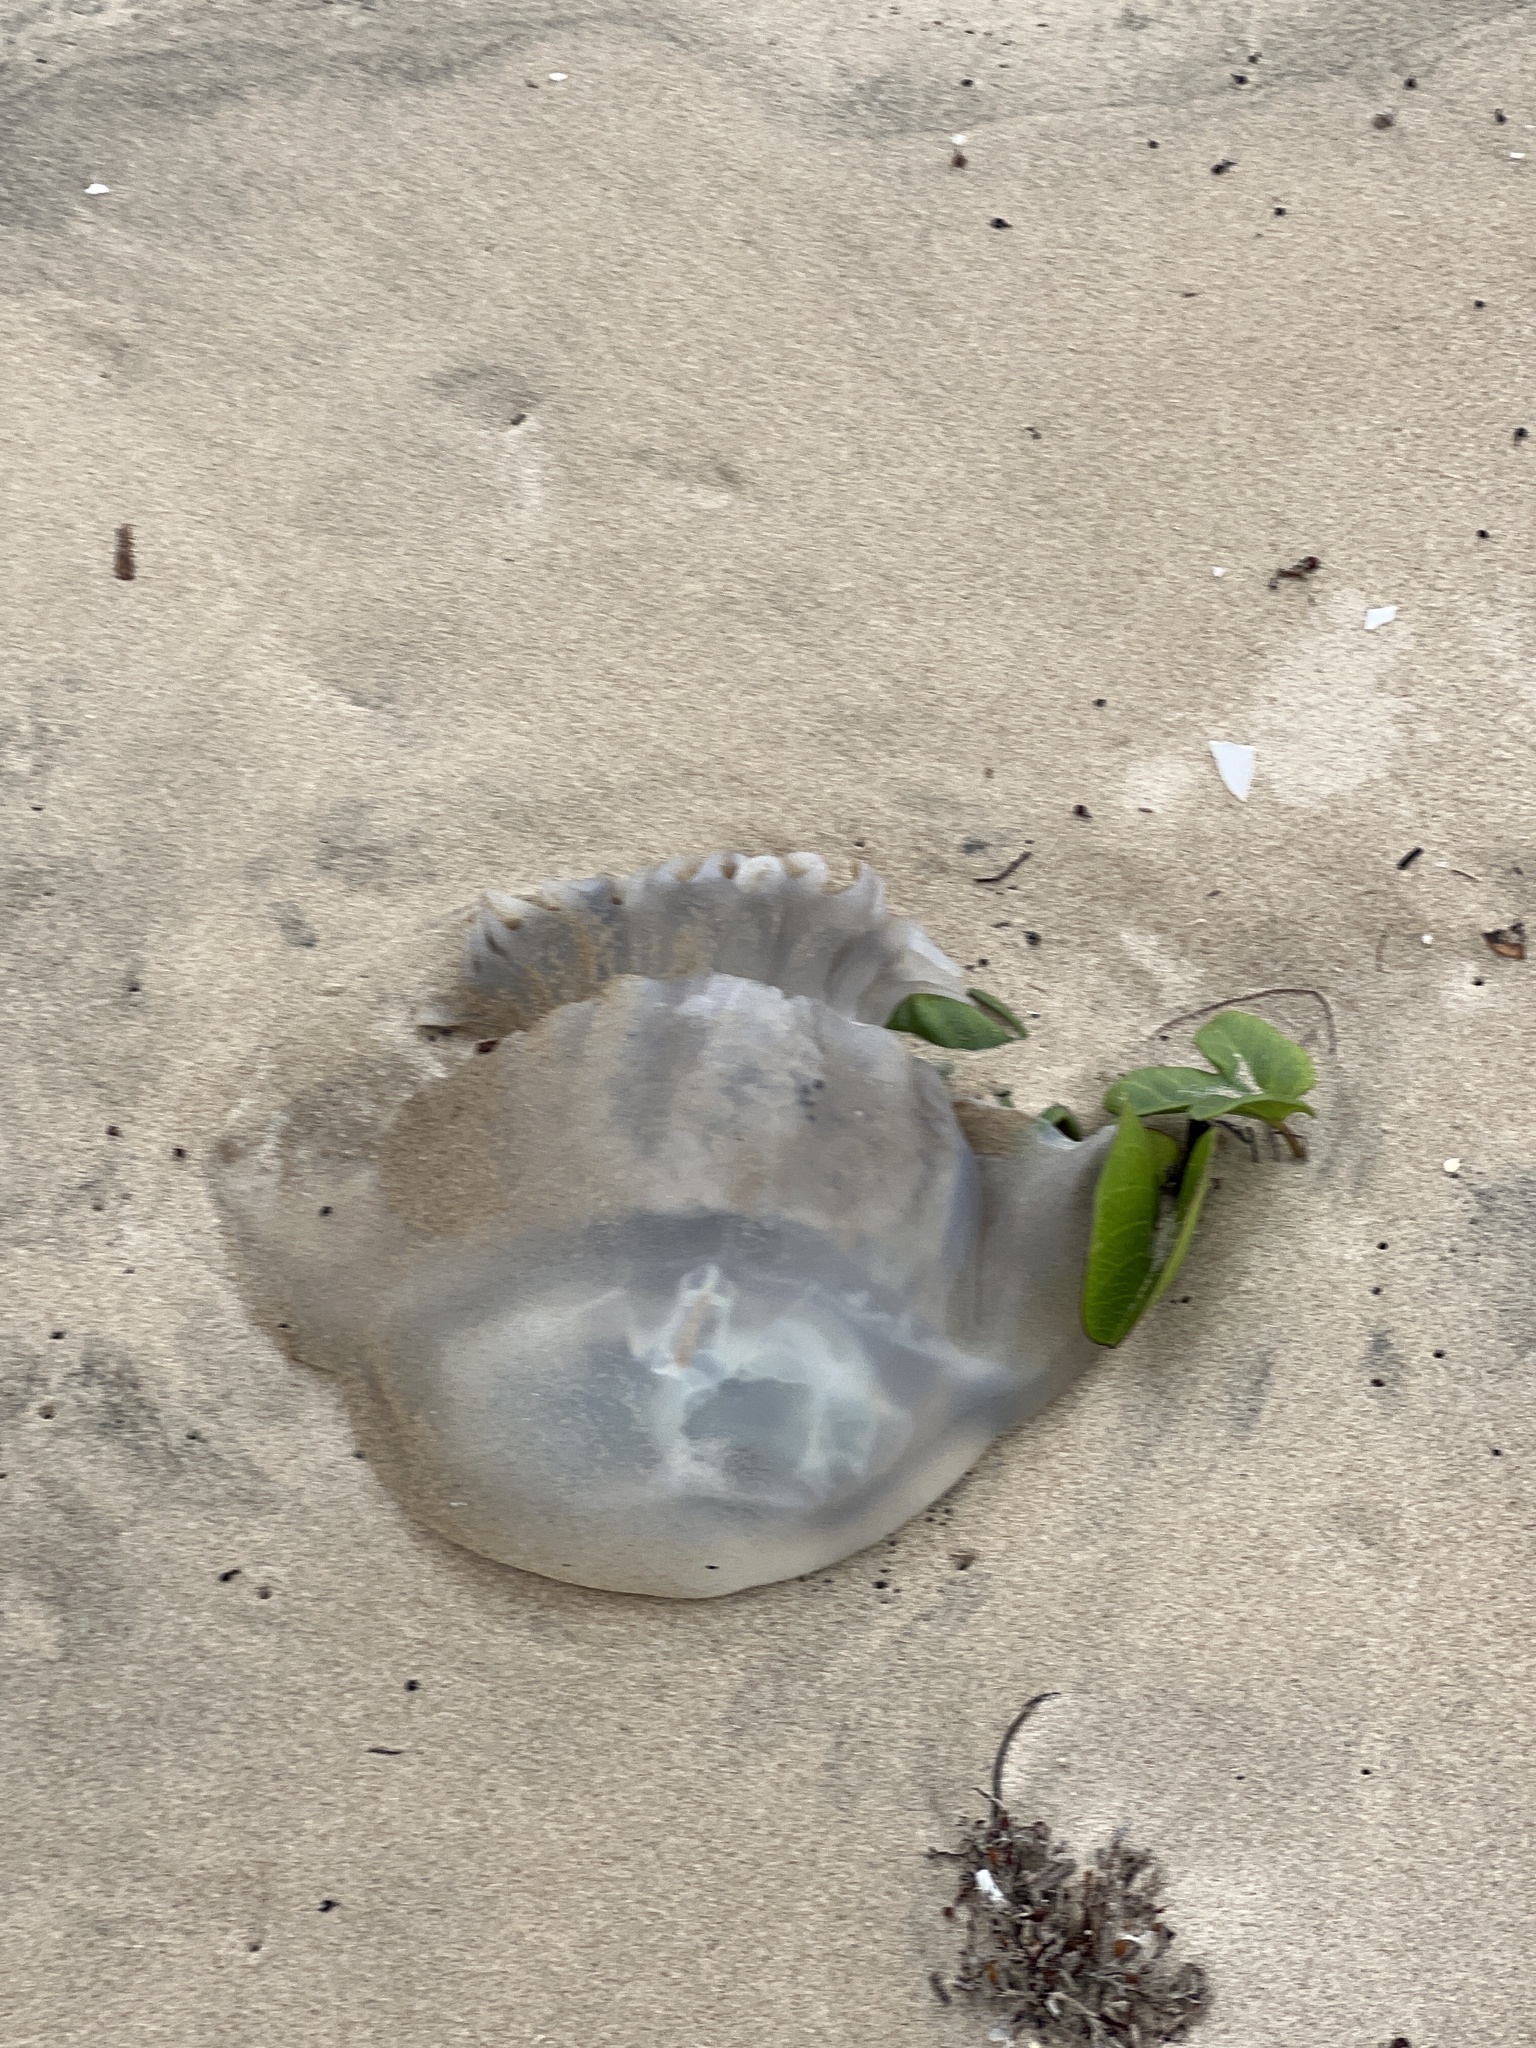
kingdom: Animalia
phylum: Cnidaria
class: Scyphozoa
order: Rhizostomeae
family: Stomolophidae
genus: Stomolophus
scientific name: Stomolophus meleagris
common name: Cabbagehead
